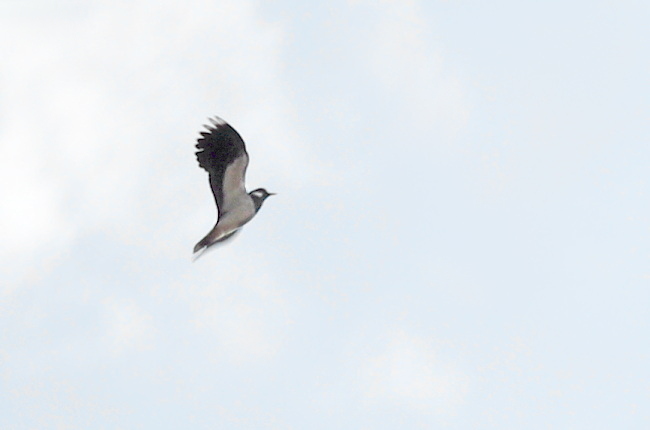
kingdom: Animalia
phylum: Chordata
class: Aves
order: Charadriiformes
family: Charadriidae
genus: Vanellus
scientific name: Vanellus vanellus
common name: Northern lapwing
